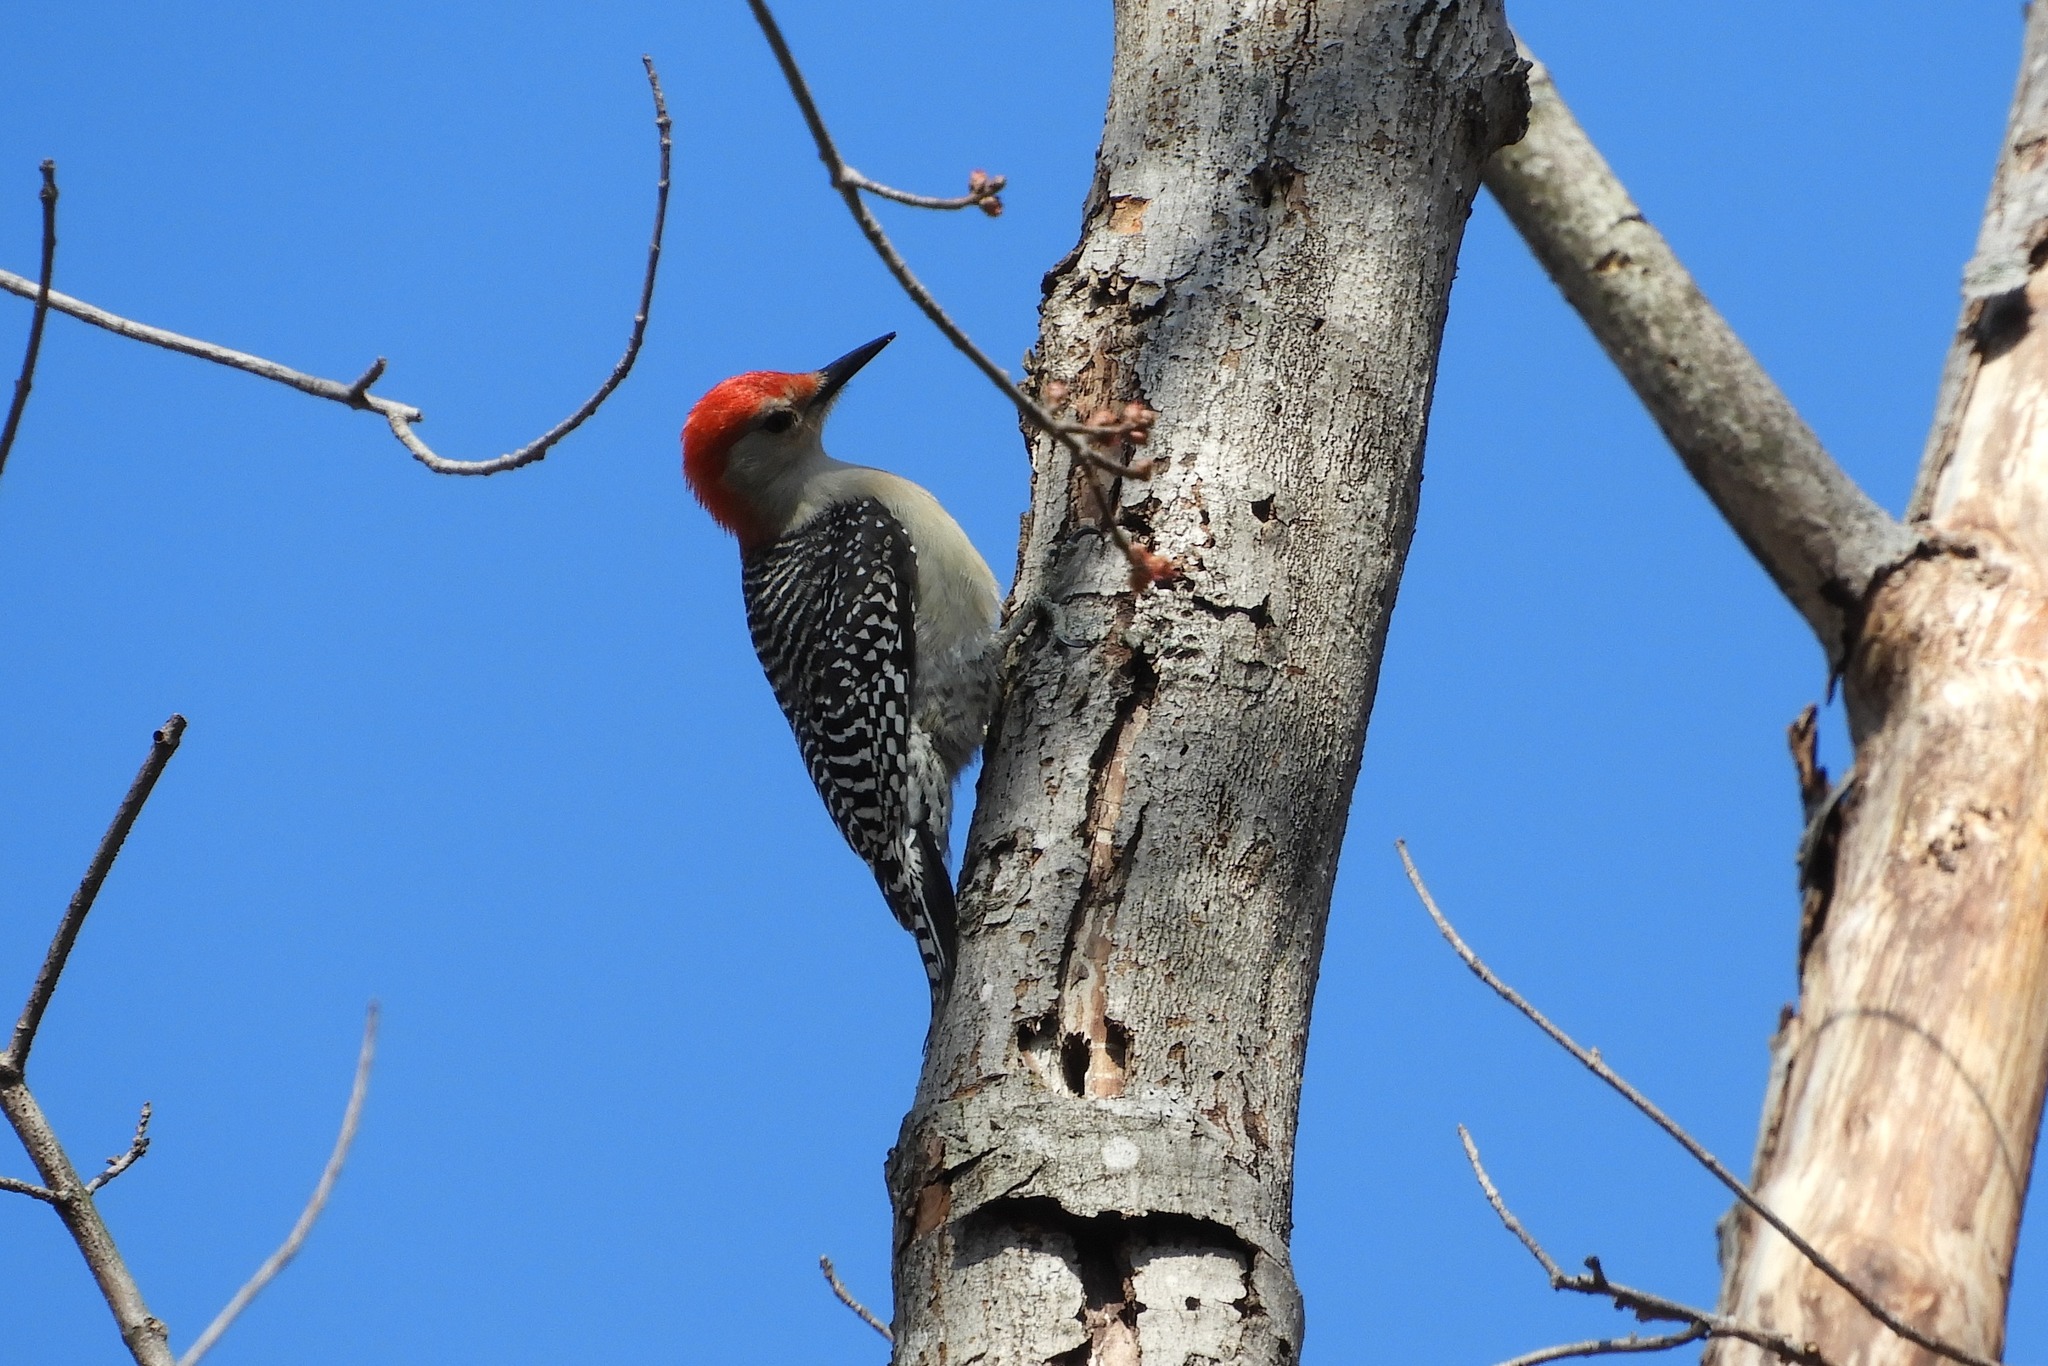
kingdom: Animalia
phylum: Chordata
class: Aves
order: Piciformes
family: Picidae
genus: Melanerpes
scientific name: Melanerpes carolinus
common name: Red-bellied woodpecker
